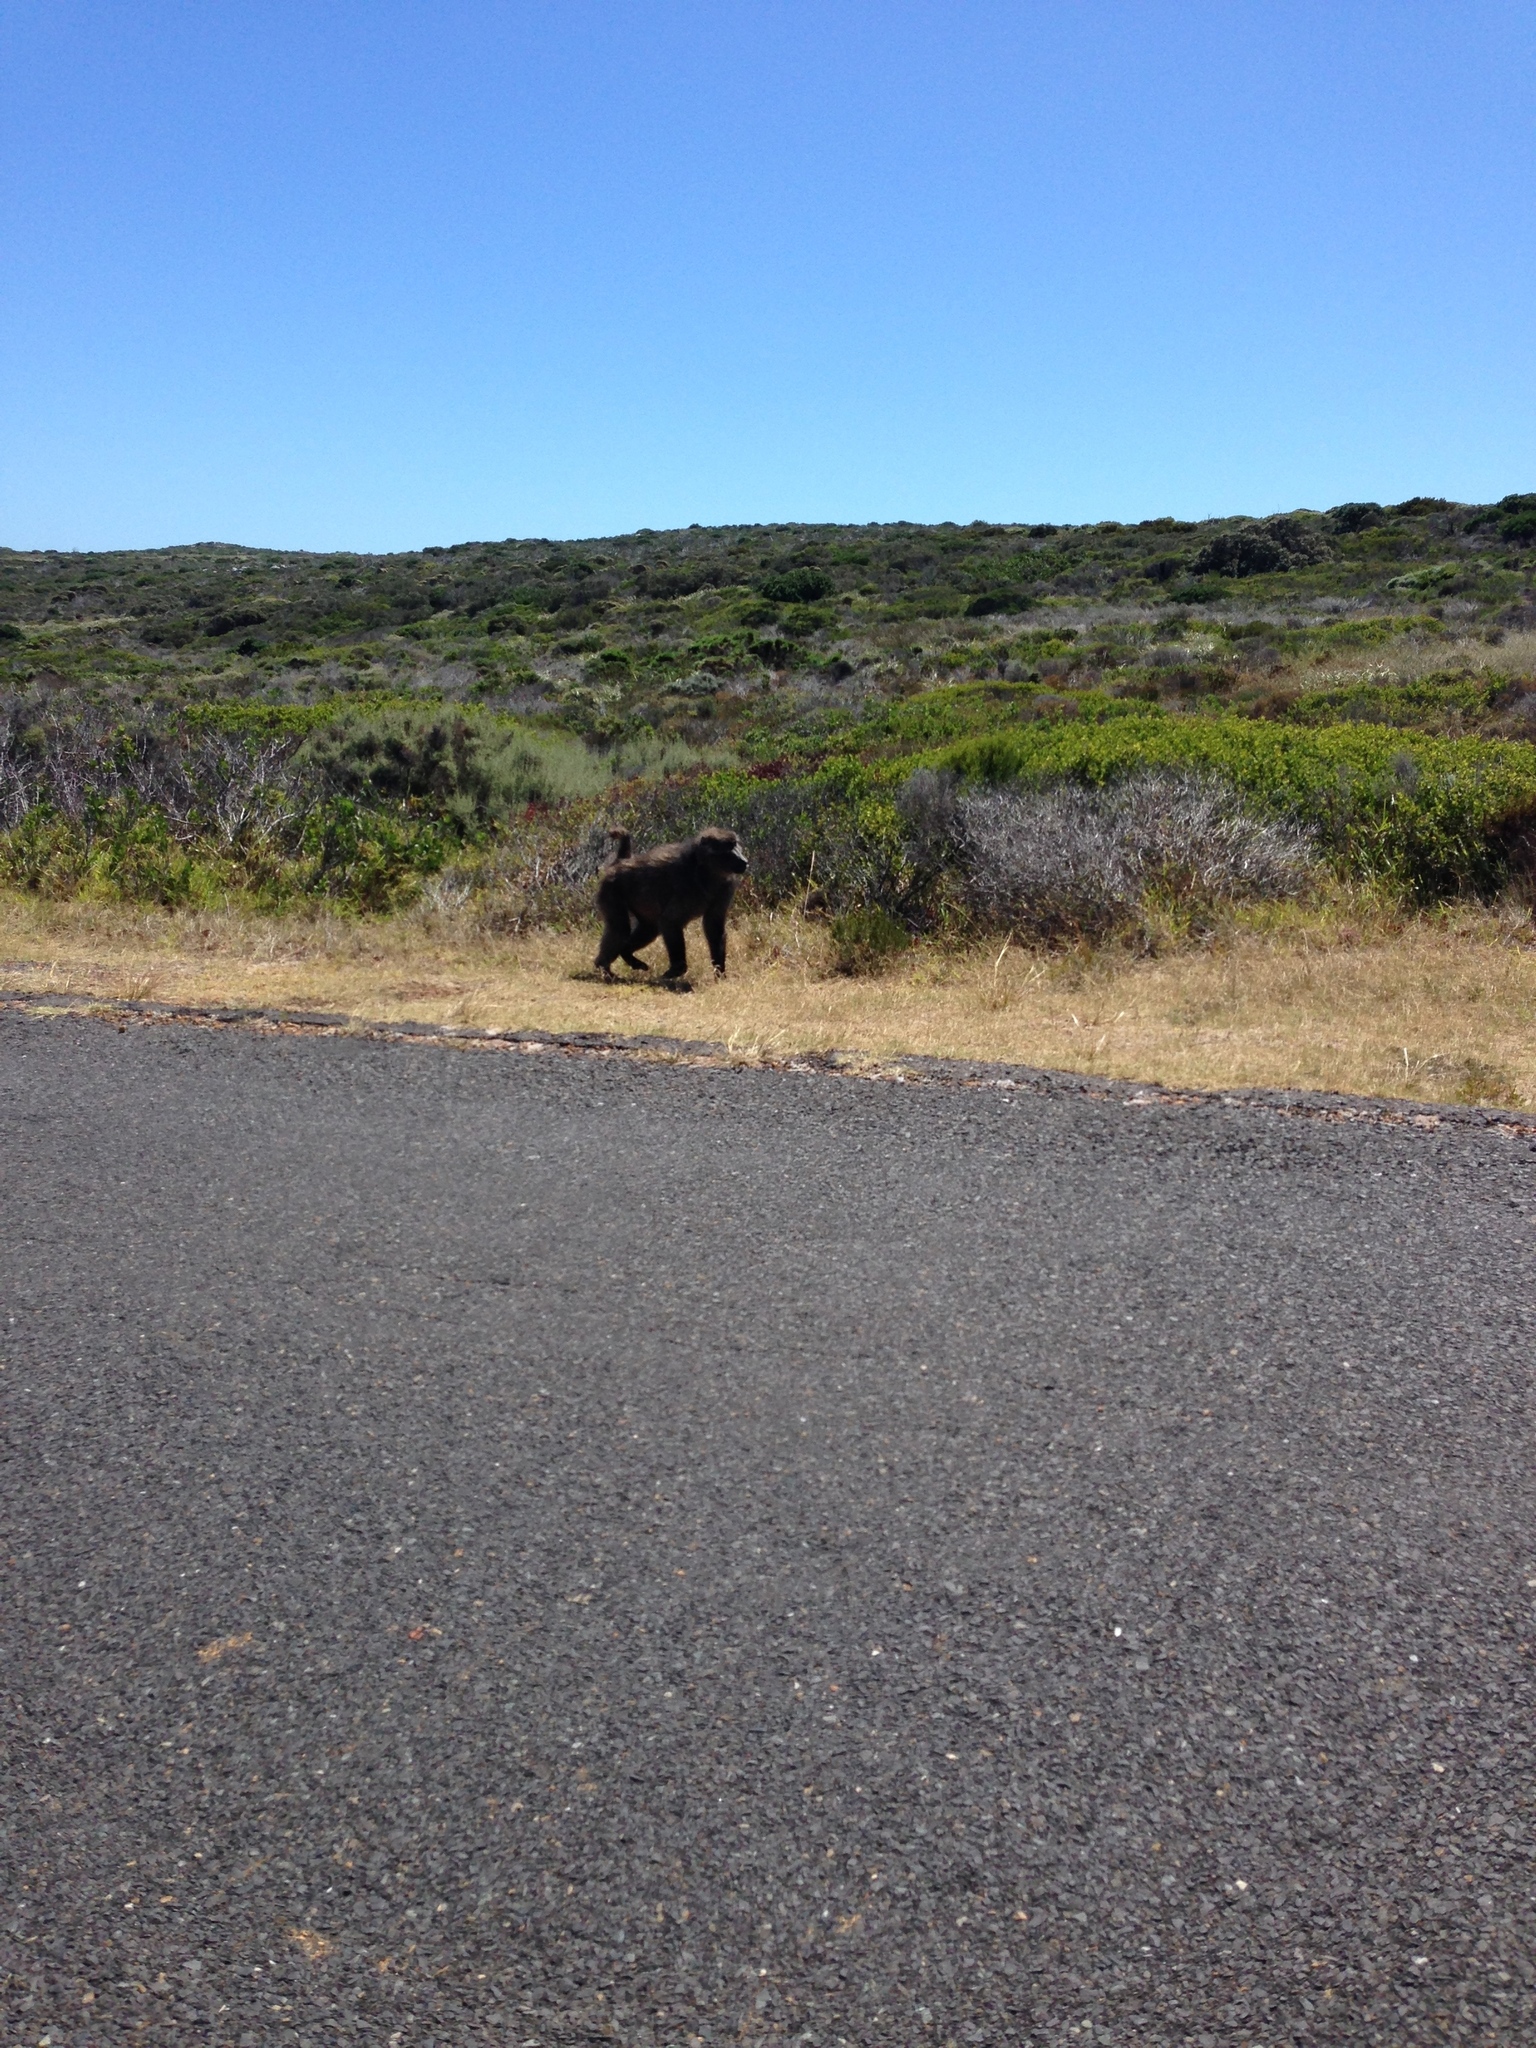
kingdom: Animalia
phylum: Chordata
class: Mammalia
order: Primates
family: Cercopithecidae
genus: Papio
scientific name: Papio ursinus
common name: Chacma baboon
